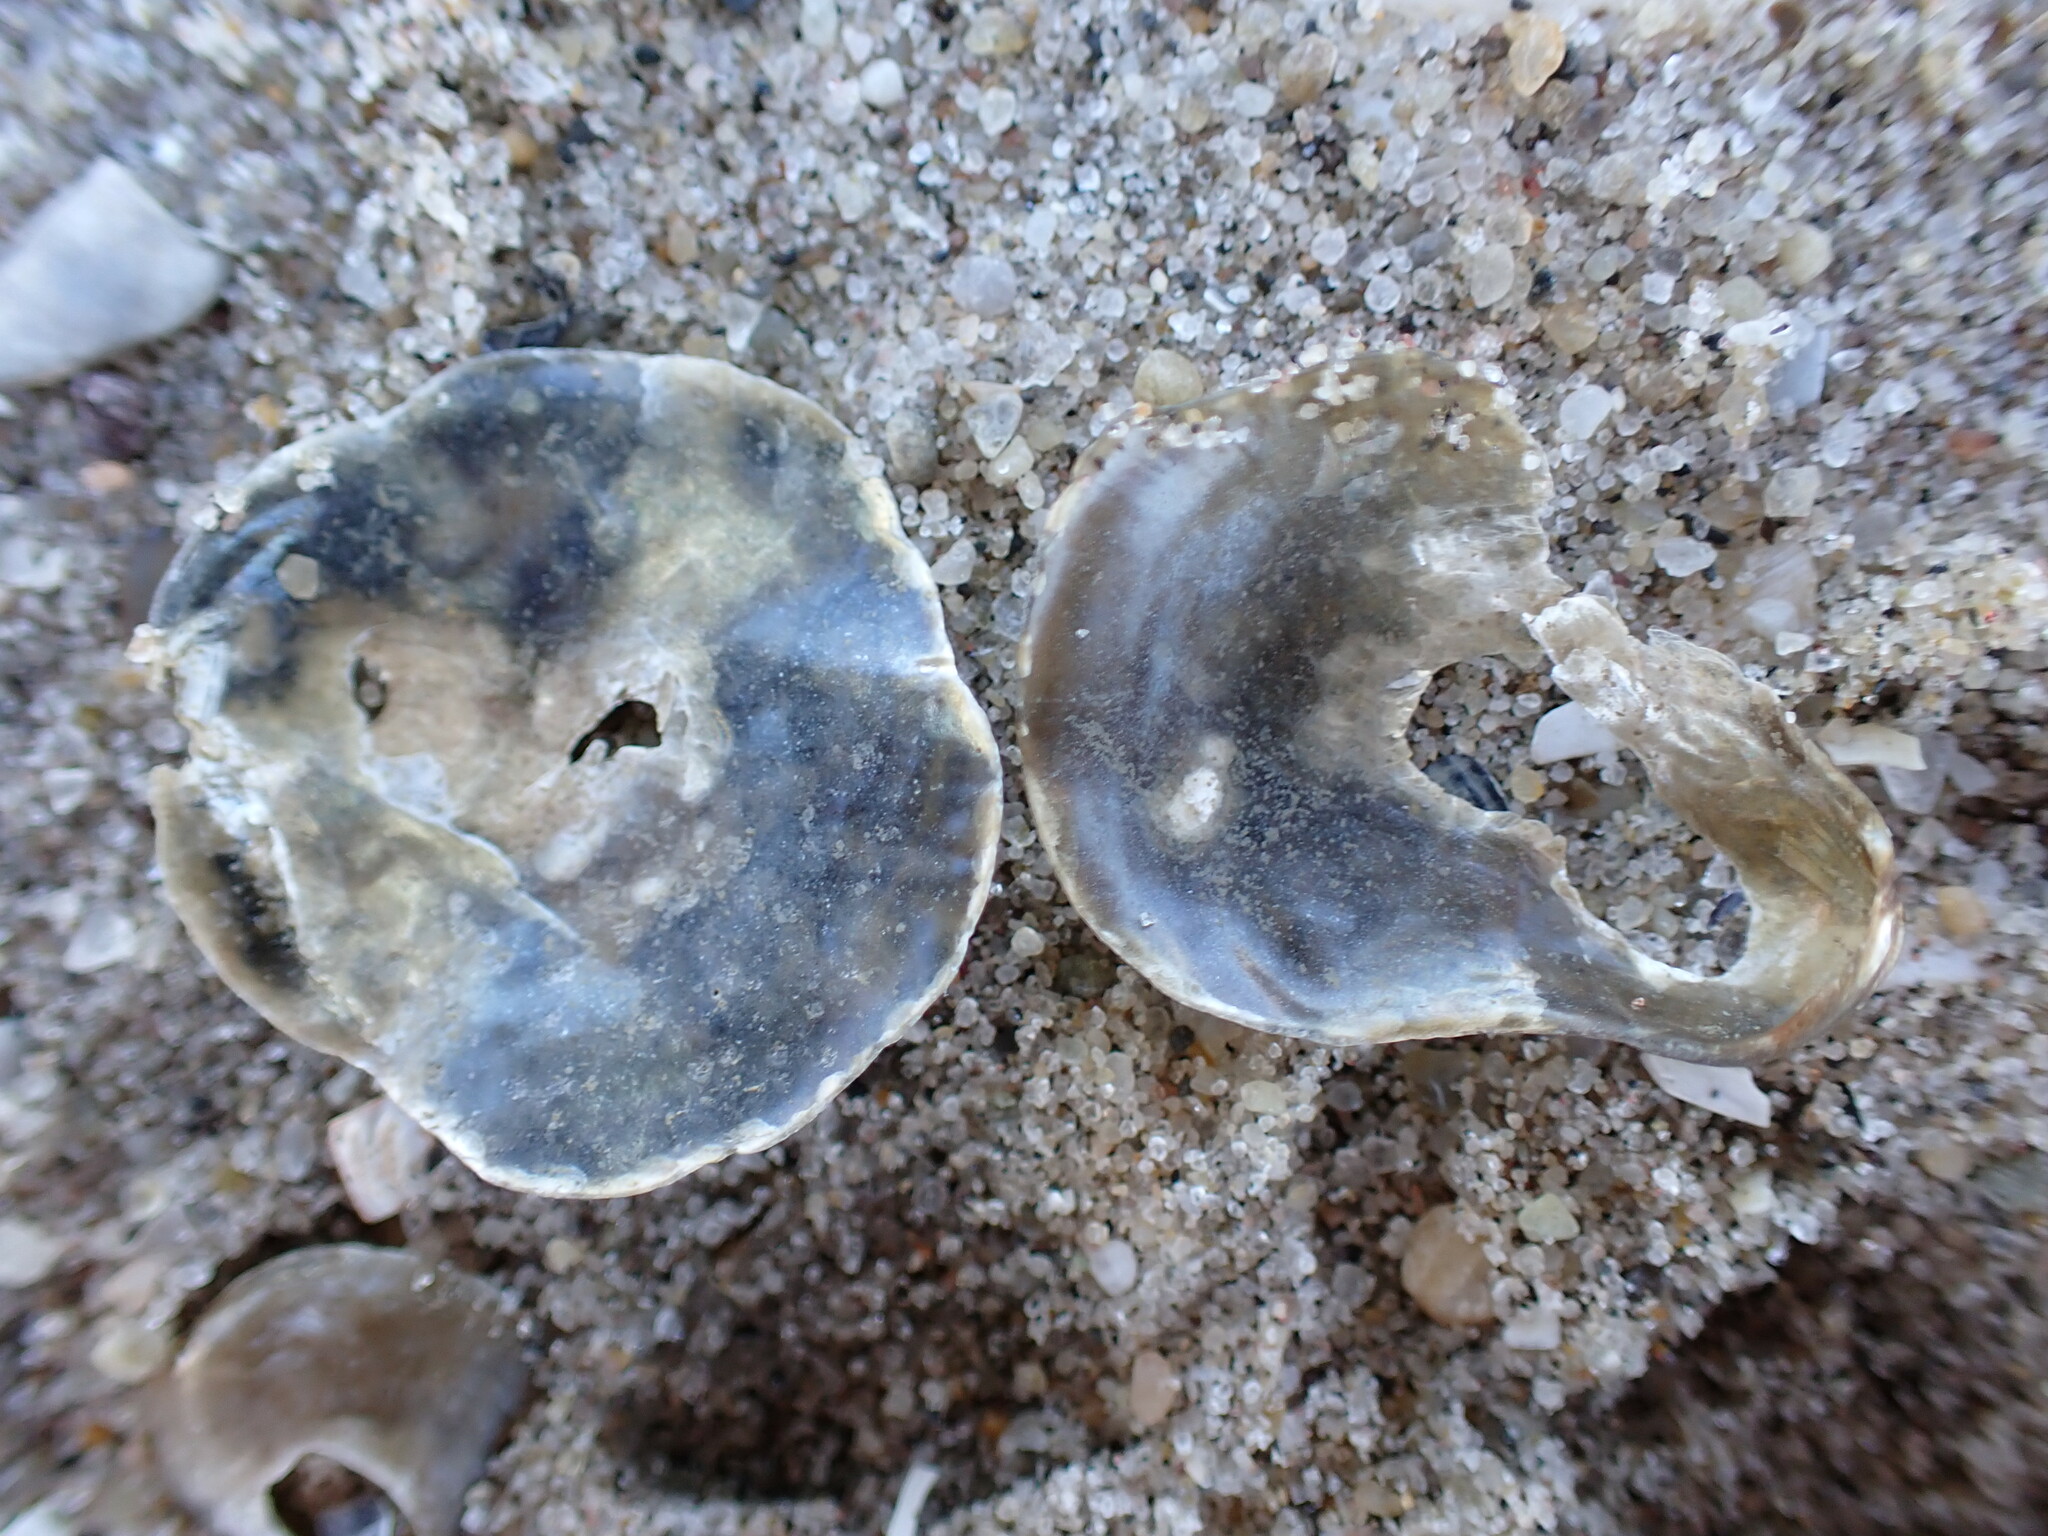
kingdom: Animalia
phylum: Mollusca
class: Bivalvia
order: Pectinida
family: Anomiidae
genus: Anomia
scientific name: Anomia simplex
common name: Common jingle shell
